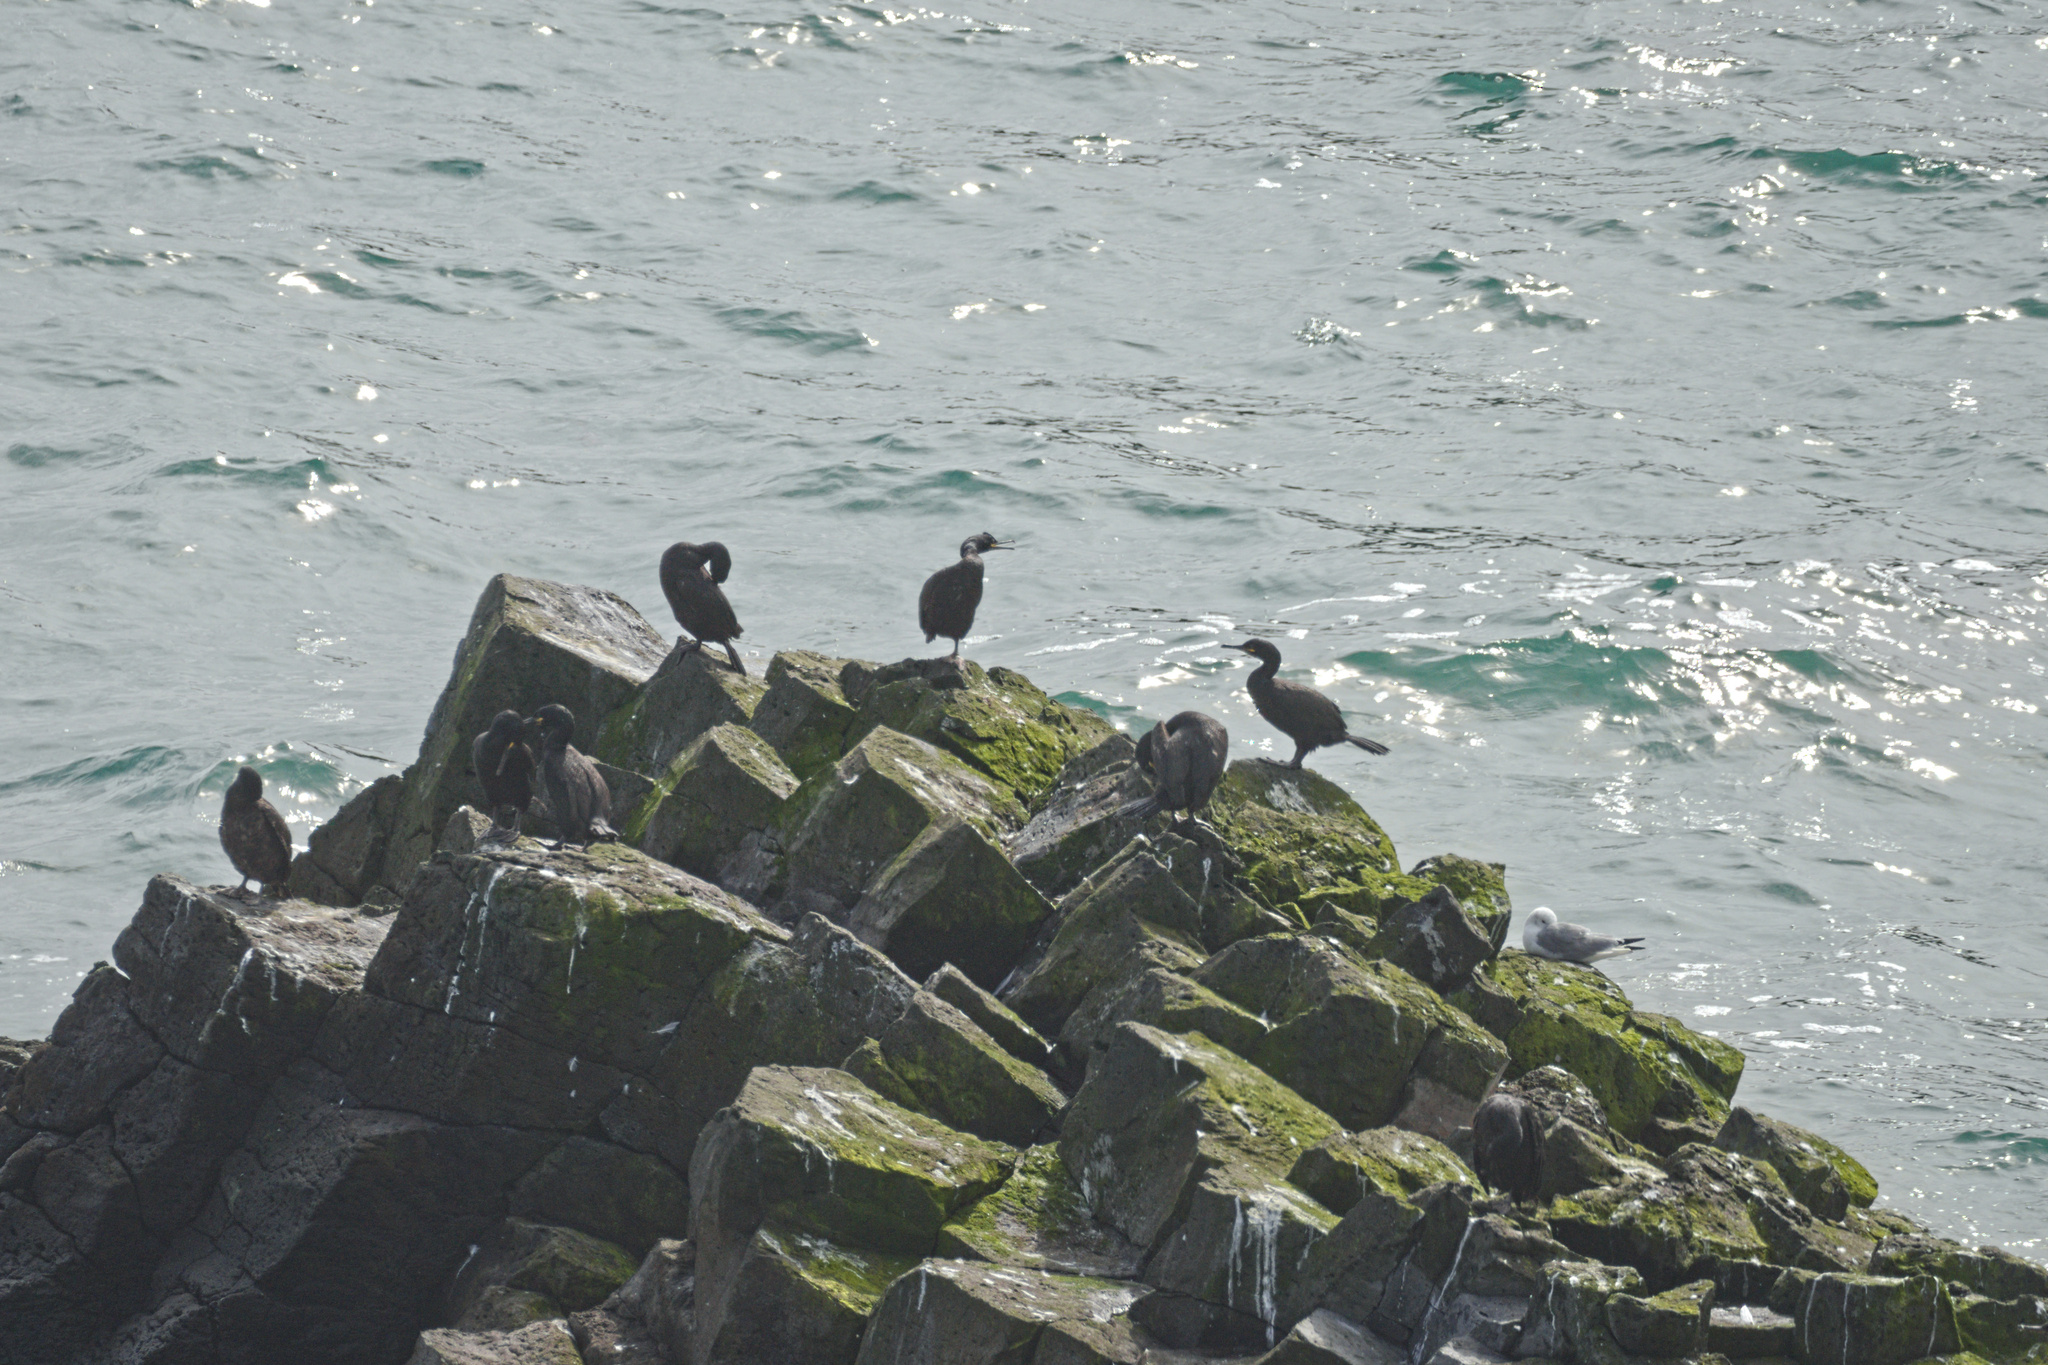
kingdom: Animalia
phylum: Chordata
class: Aves
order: Suliformes
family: Phalacrocoracidae
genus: Phalacrocorax
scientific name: Phalacrocorax aristotelis
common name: European shag
